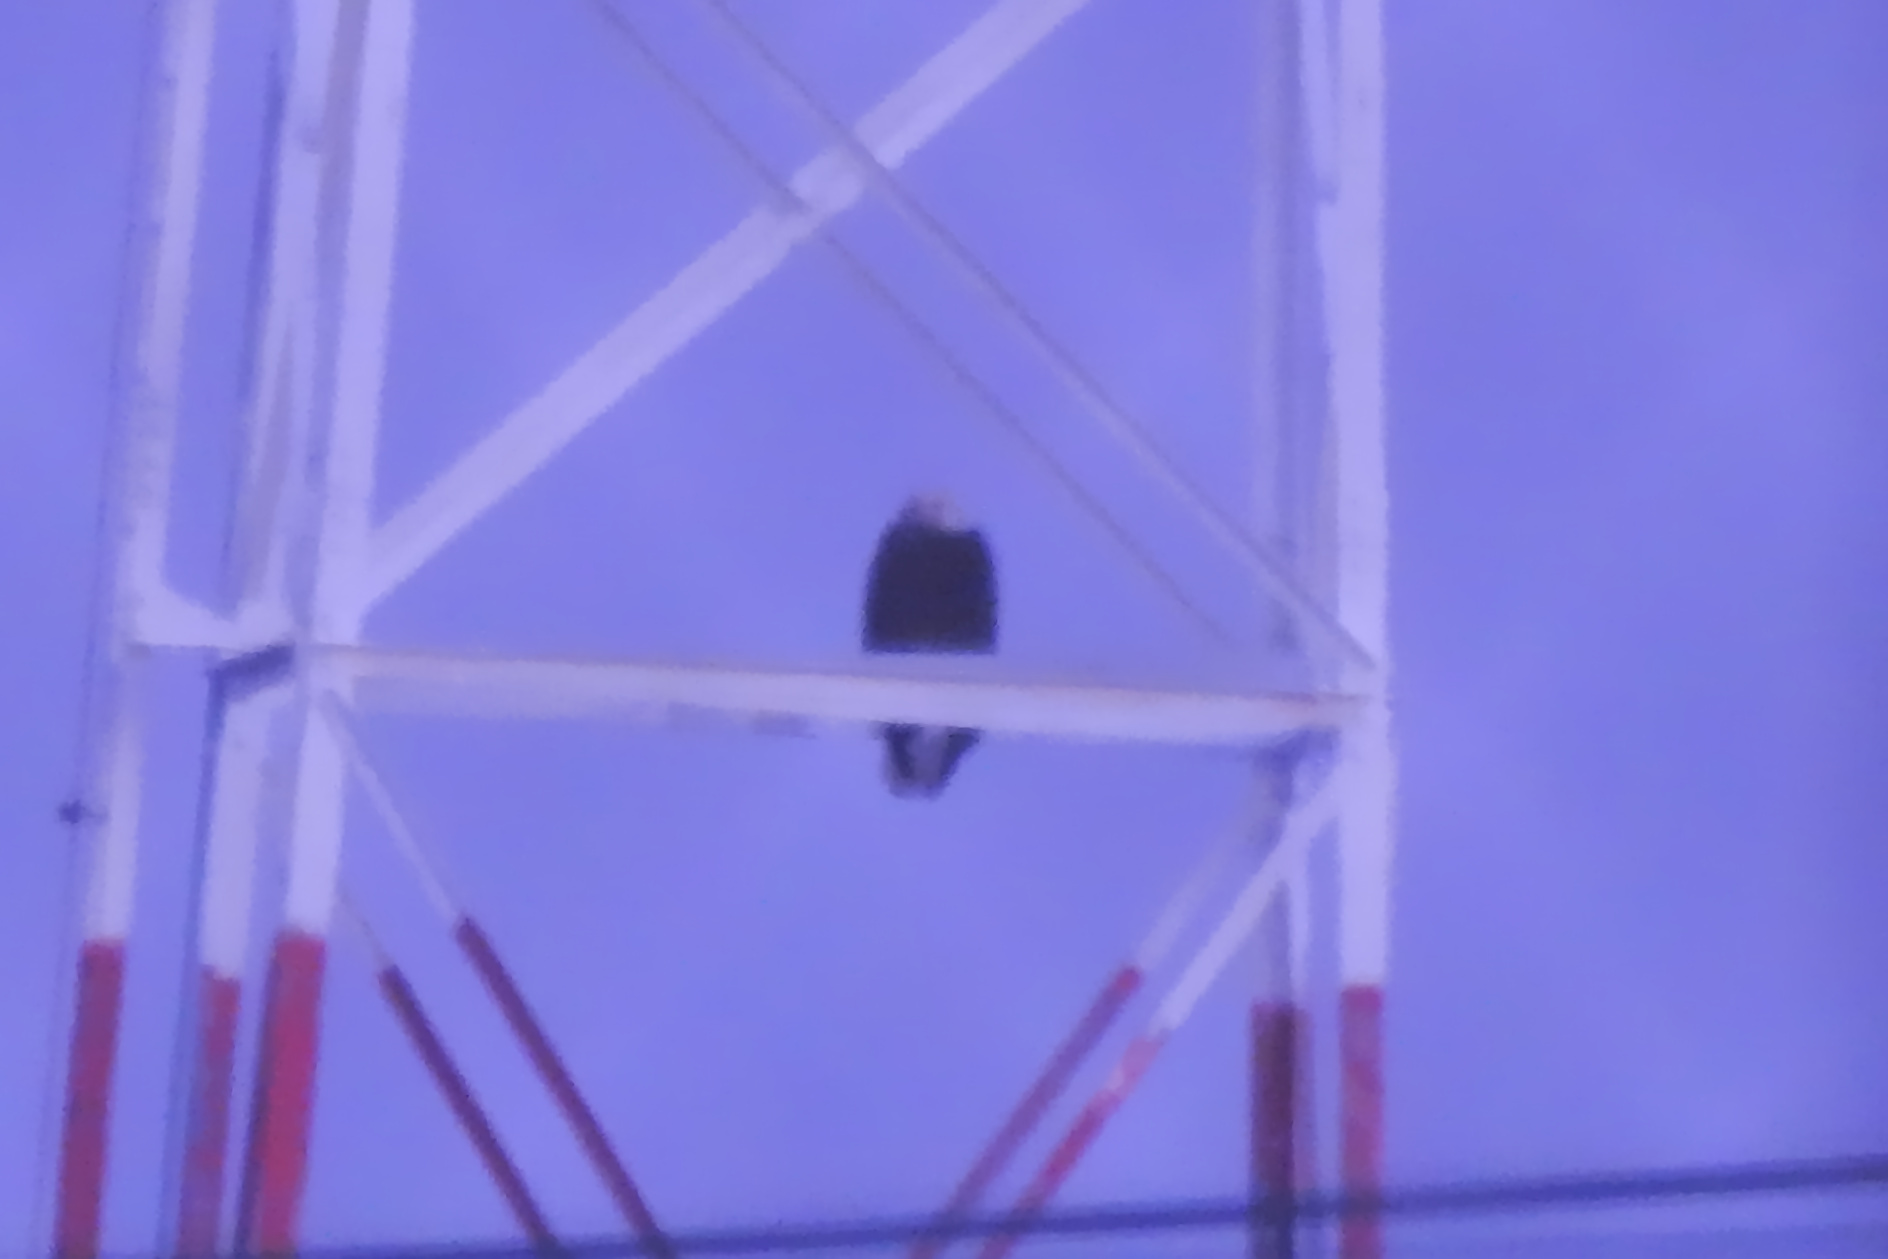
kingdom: Animalia
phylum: Chordata
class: Aves
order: Accipitriformes
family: Accipitridae
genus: Haliaeetus
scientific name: Haliaeetus leucocephalus
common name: Bald eagle
